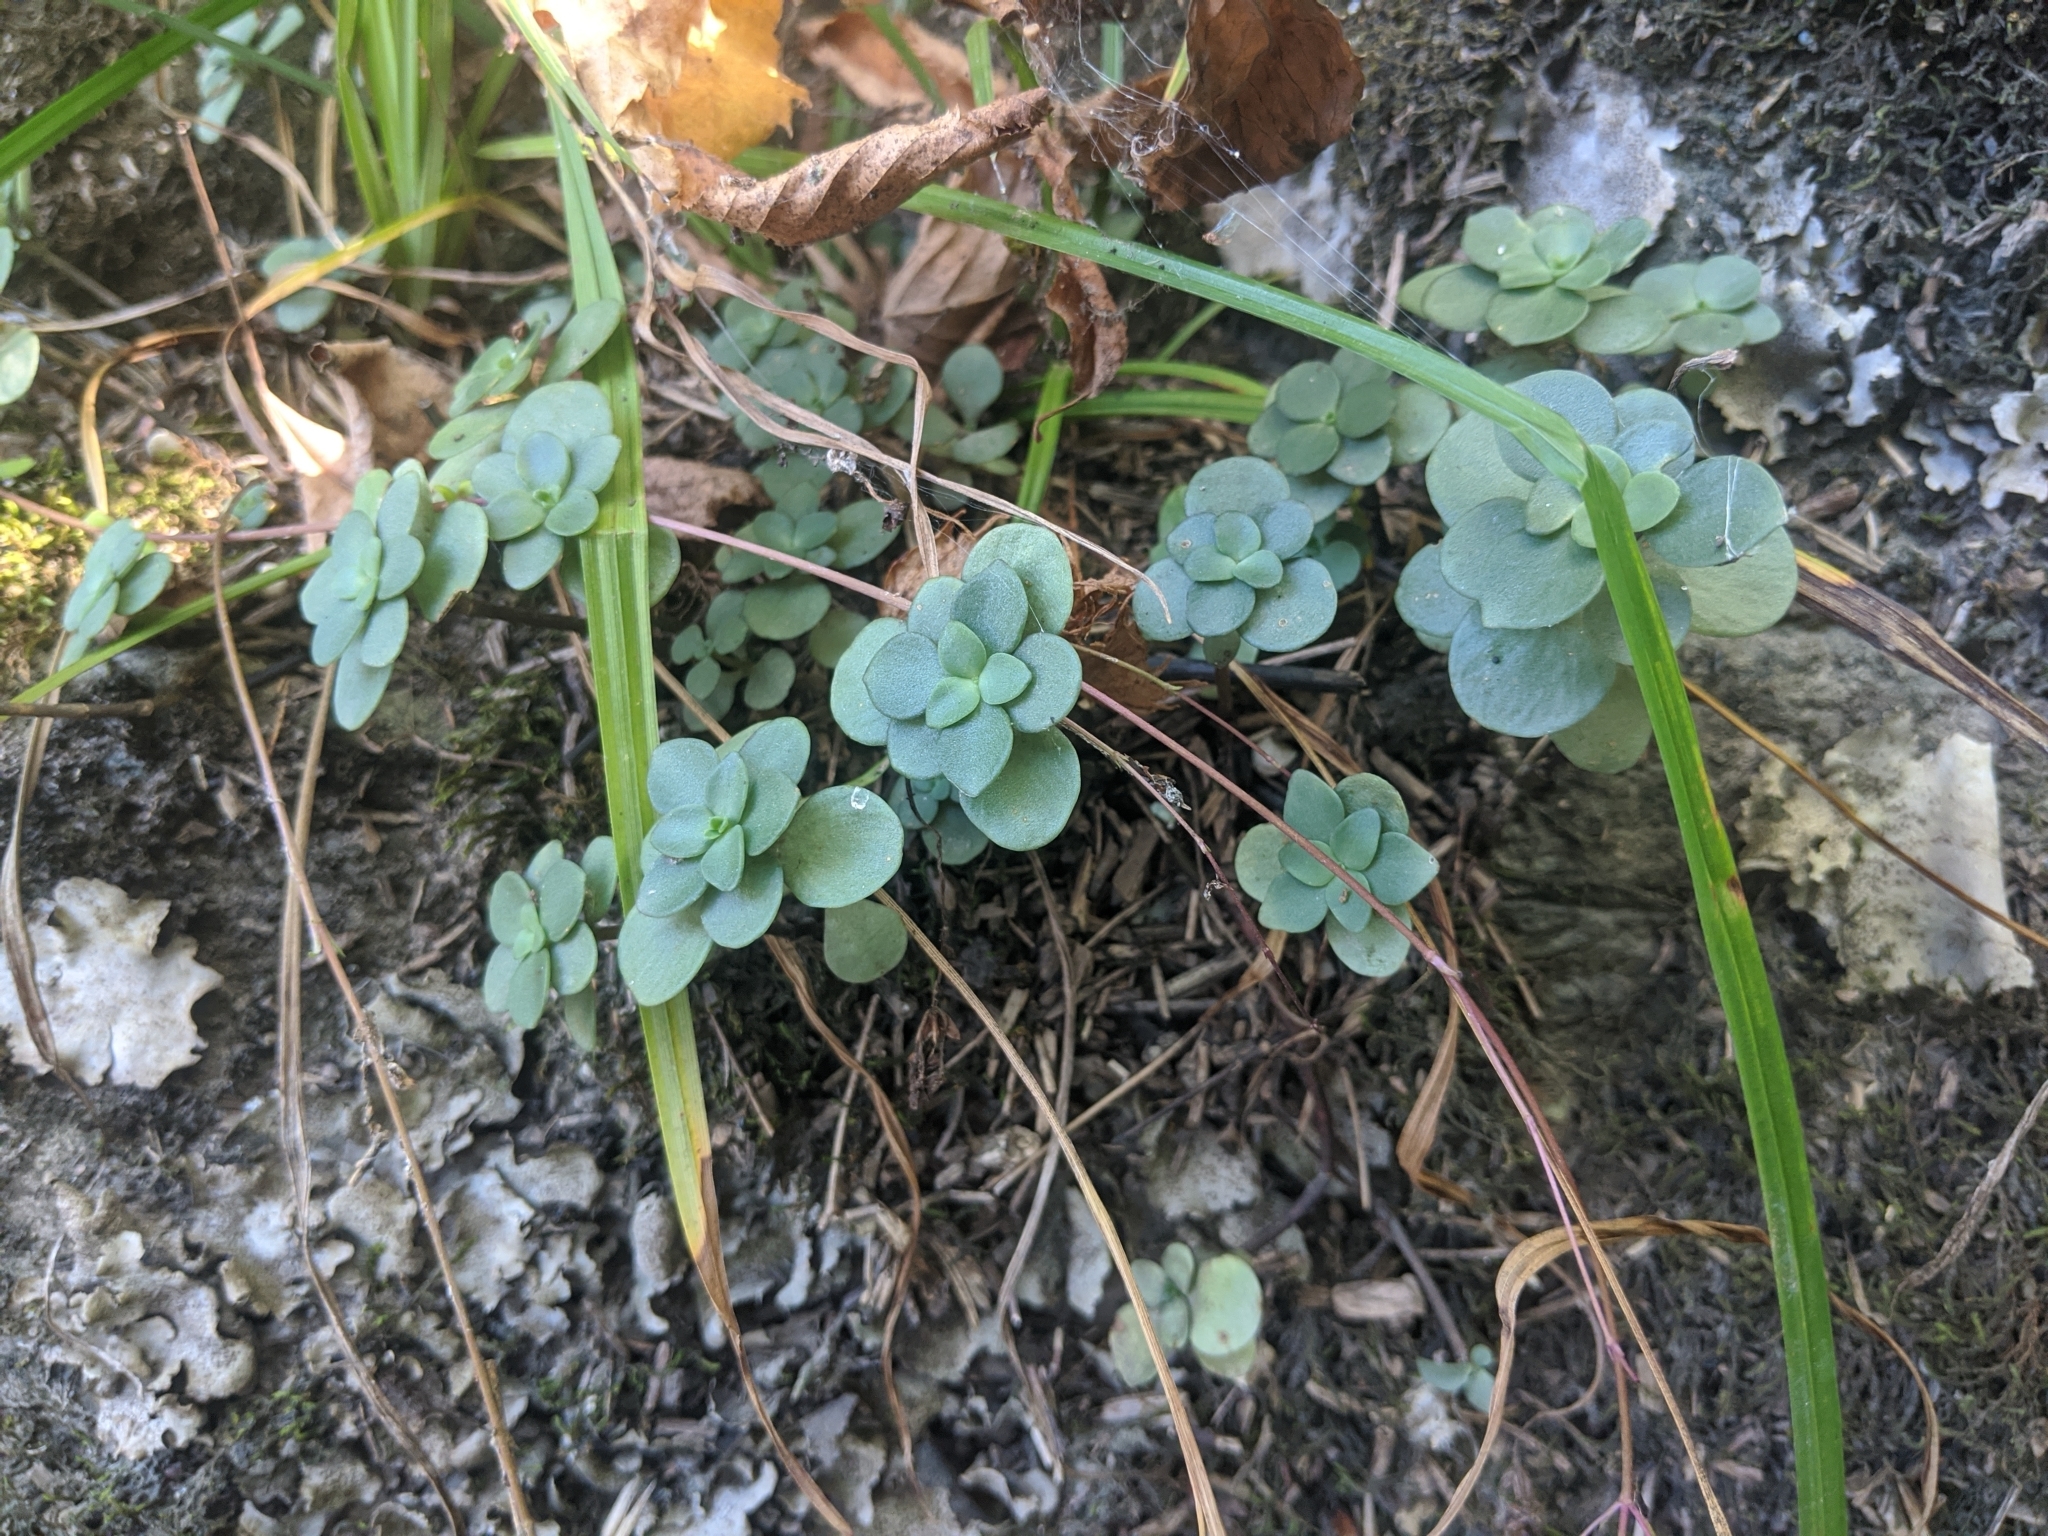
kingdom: Plantae
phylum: Tracheophyta
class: Magnoliopsida
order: Saxifragales
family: Crassulaceae
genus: Sedum
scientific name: Sedum ternatum
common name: Wild stonecrop
